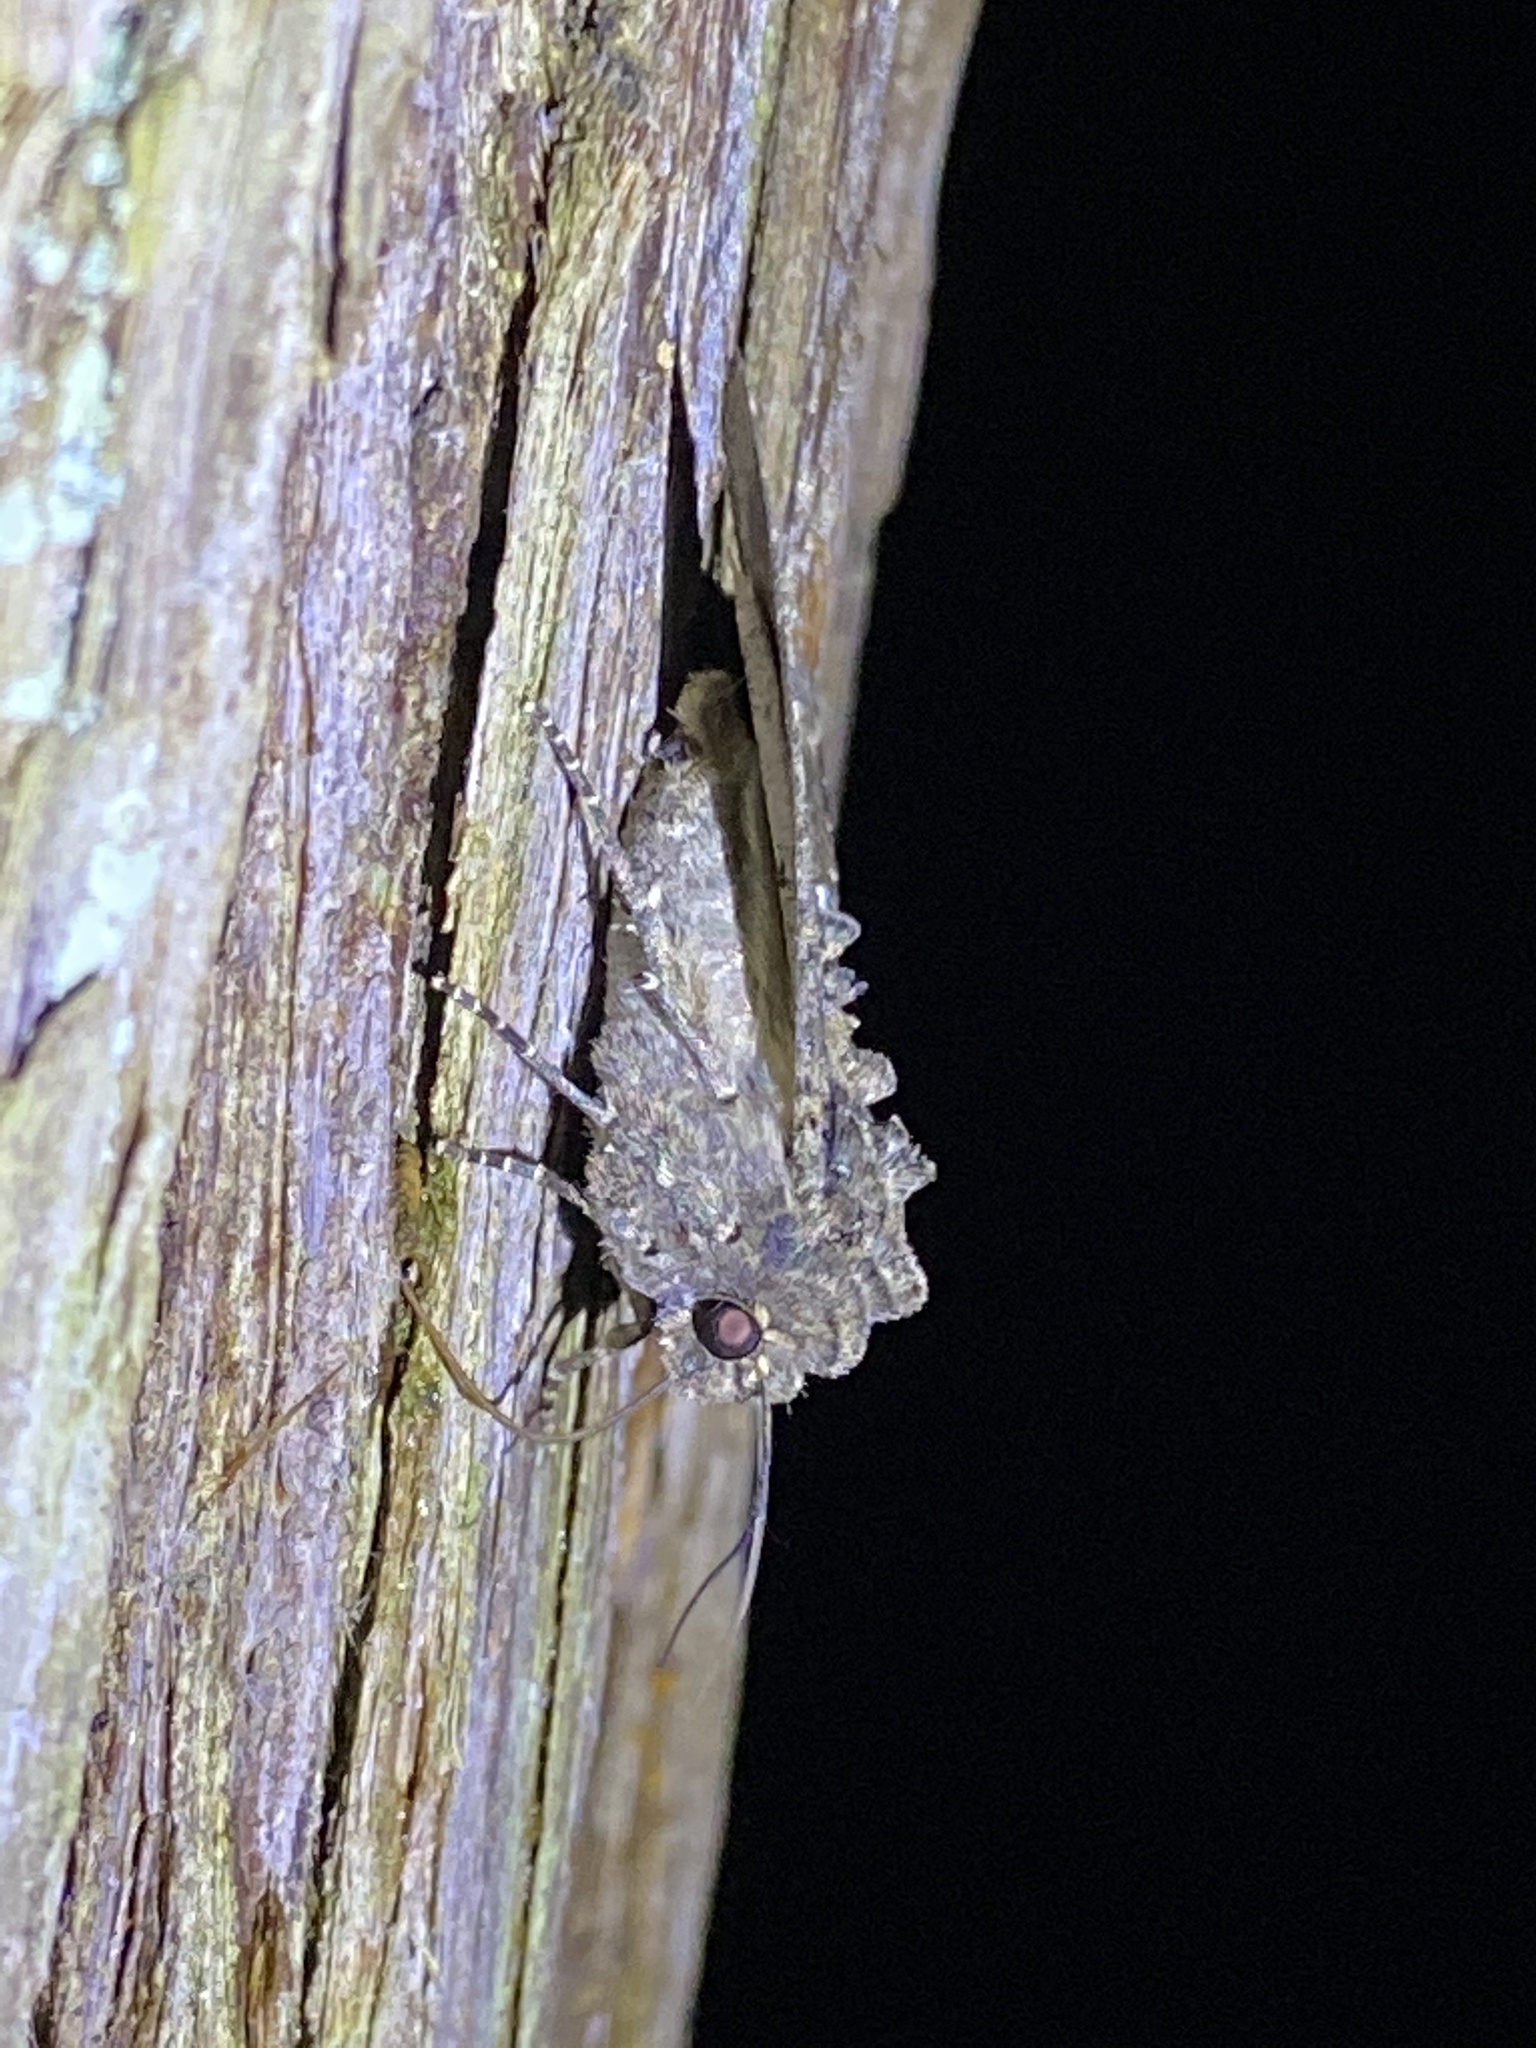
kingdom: Animalia
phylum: Arthropoda
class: Insecta
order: Lepidoptera
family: Noctuidae
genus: Mamestra
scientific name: Mamestra brassicae
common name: Cabbage moth
